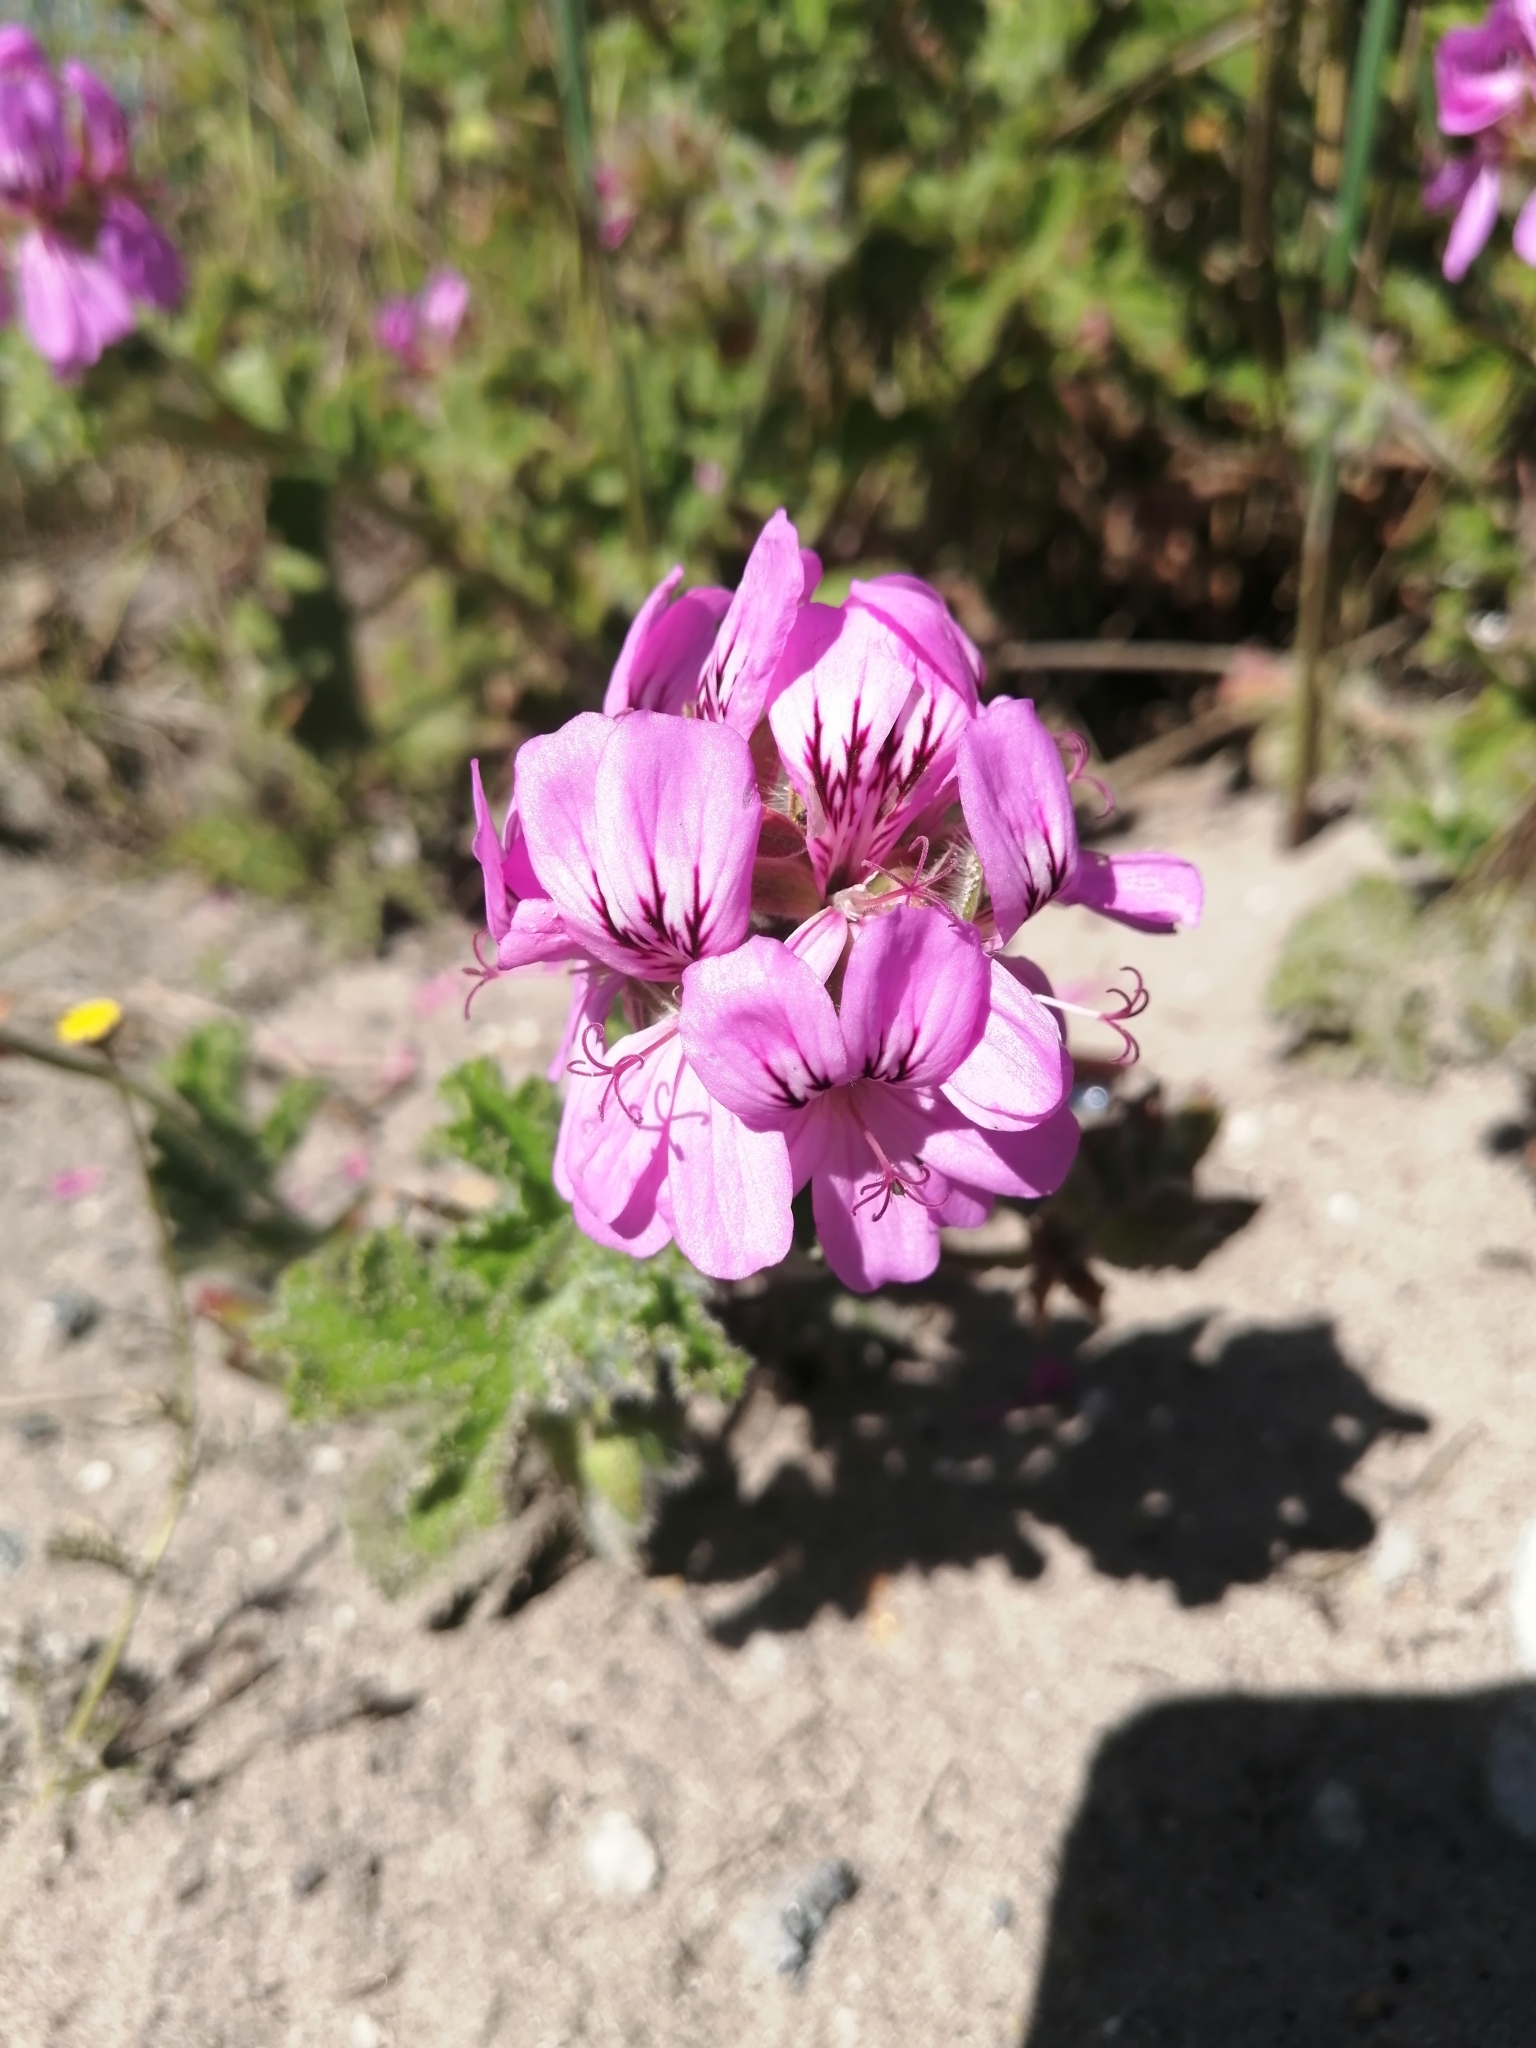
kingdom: Plantae
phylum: Tracheophyta
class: Magnoliopsida
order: Geraniales
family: Geraniaceae
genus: Pelargonium
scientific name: Pelargonium capitatum
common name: Rose scented geranium
